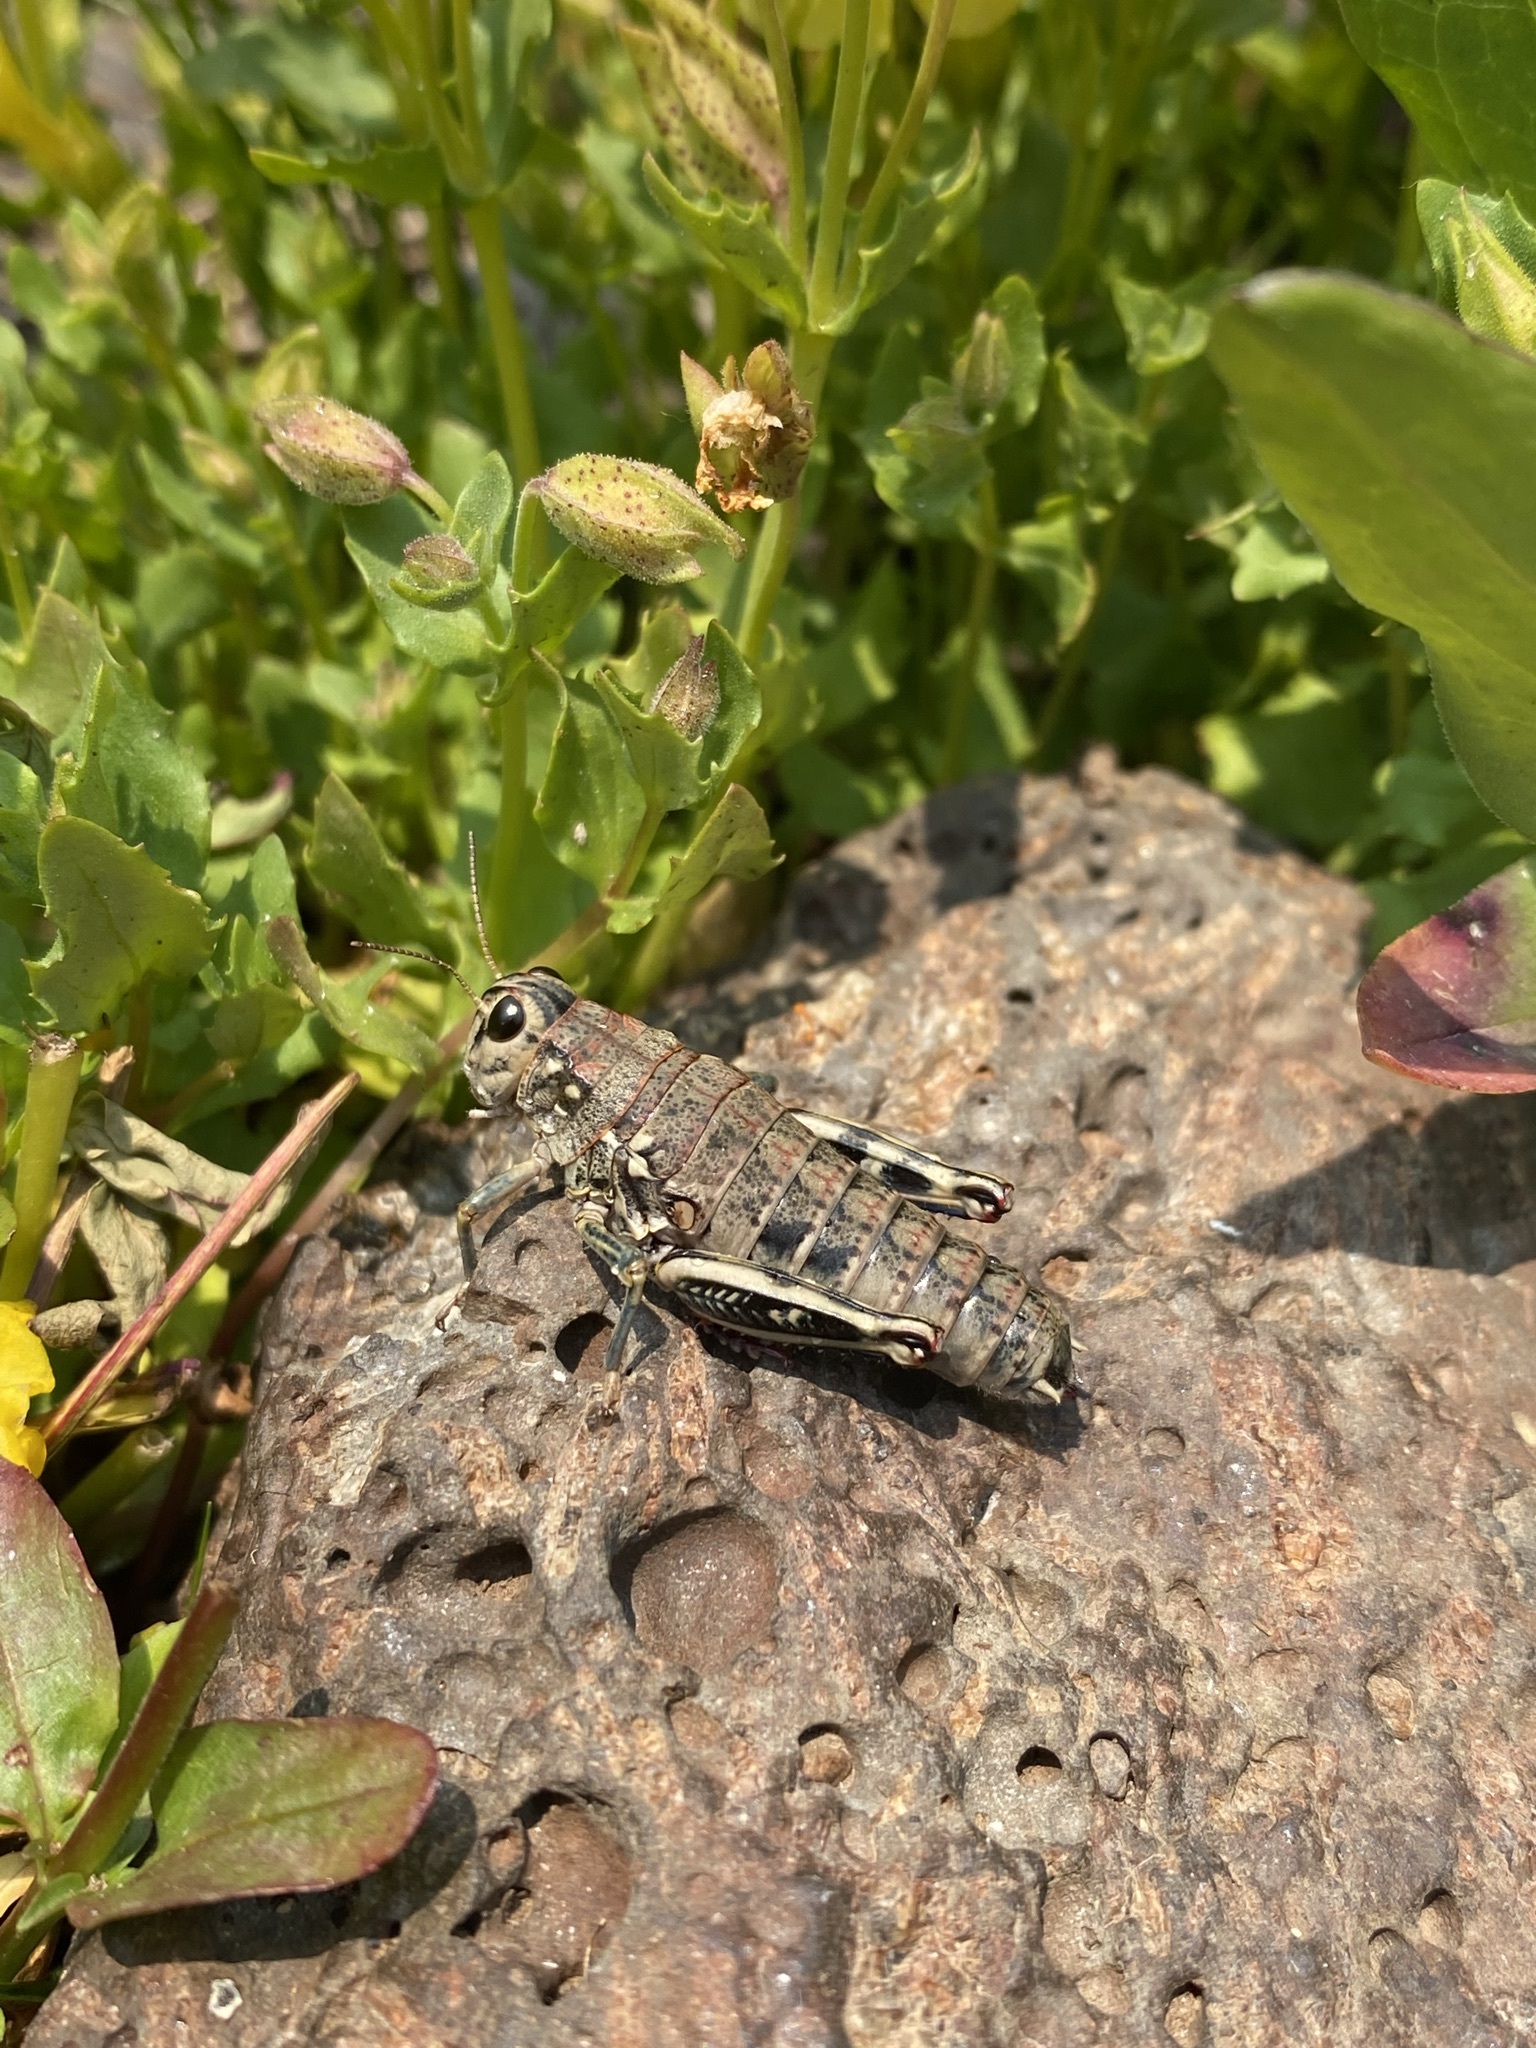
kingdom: Animalia
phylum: Arthropoda
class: Insecta
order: Orthoptera
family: Acrididae
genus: Bradynotes
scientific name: Bradynotes obesa
